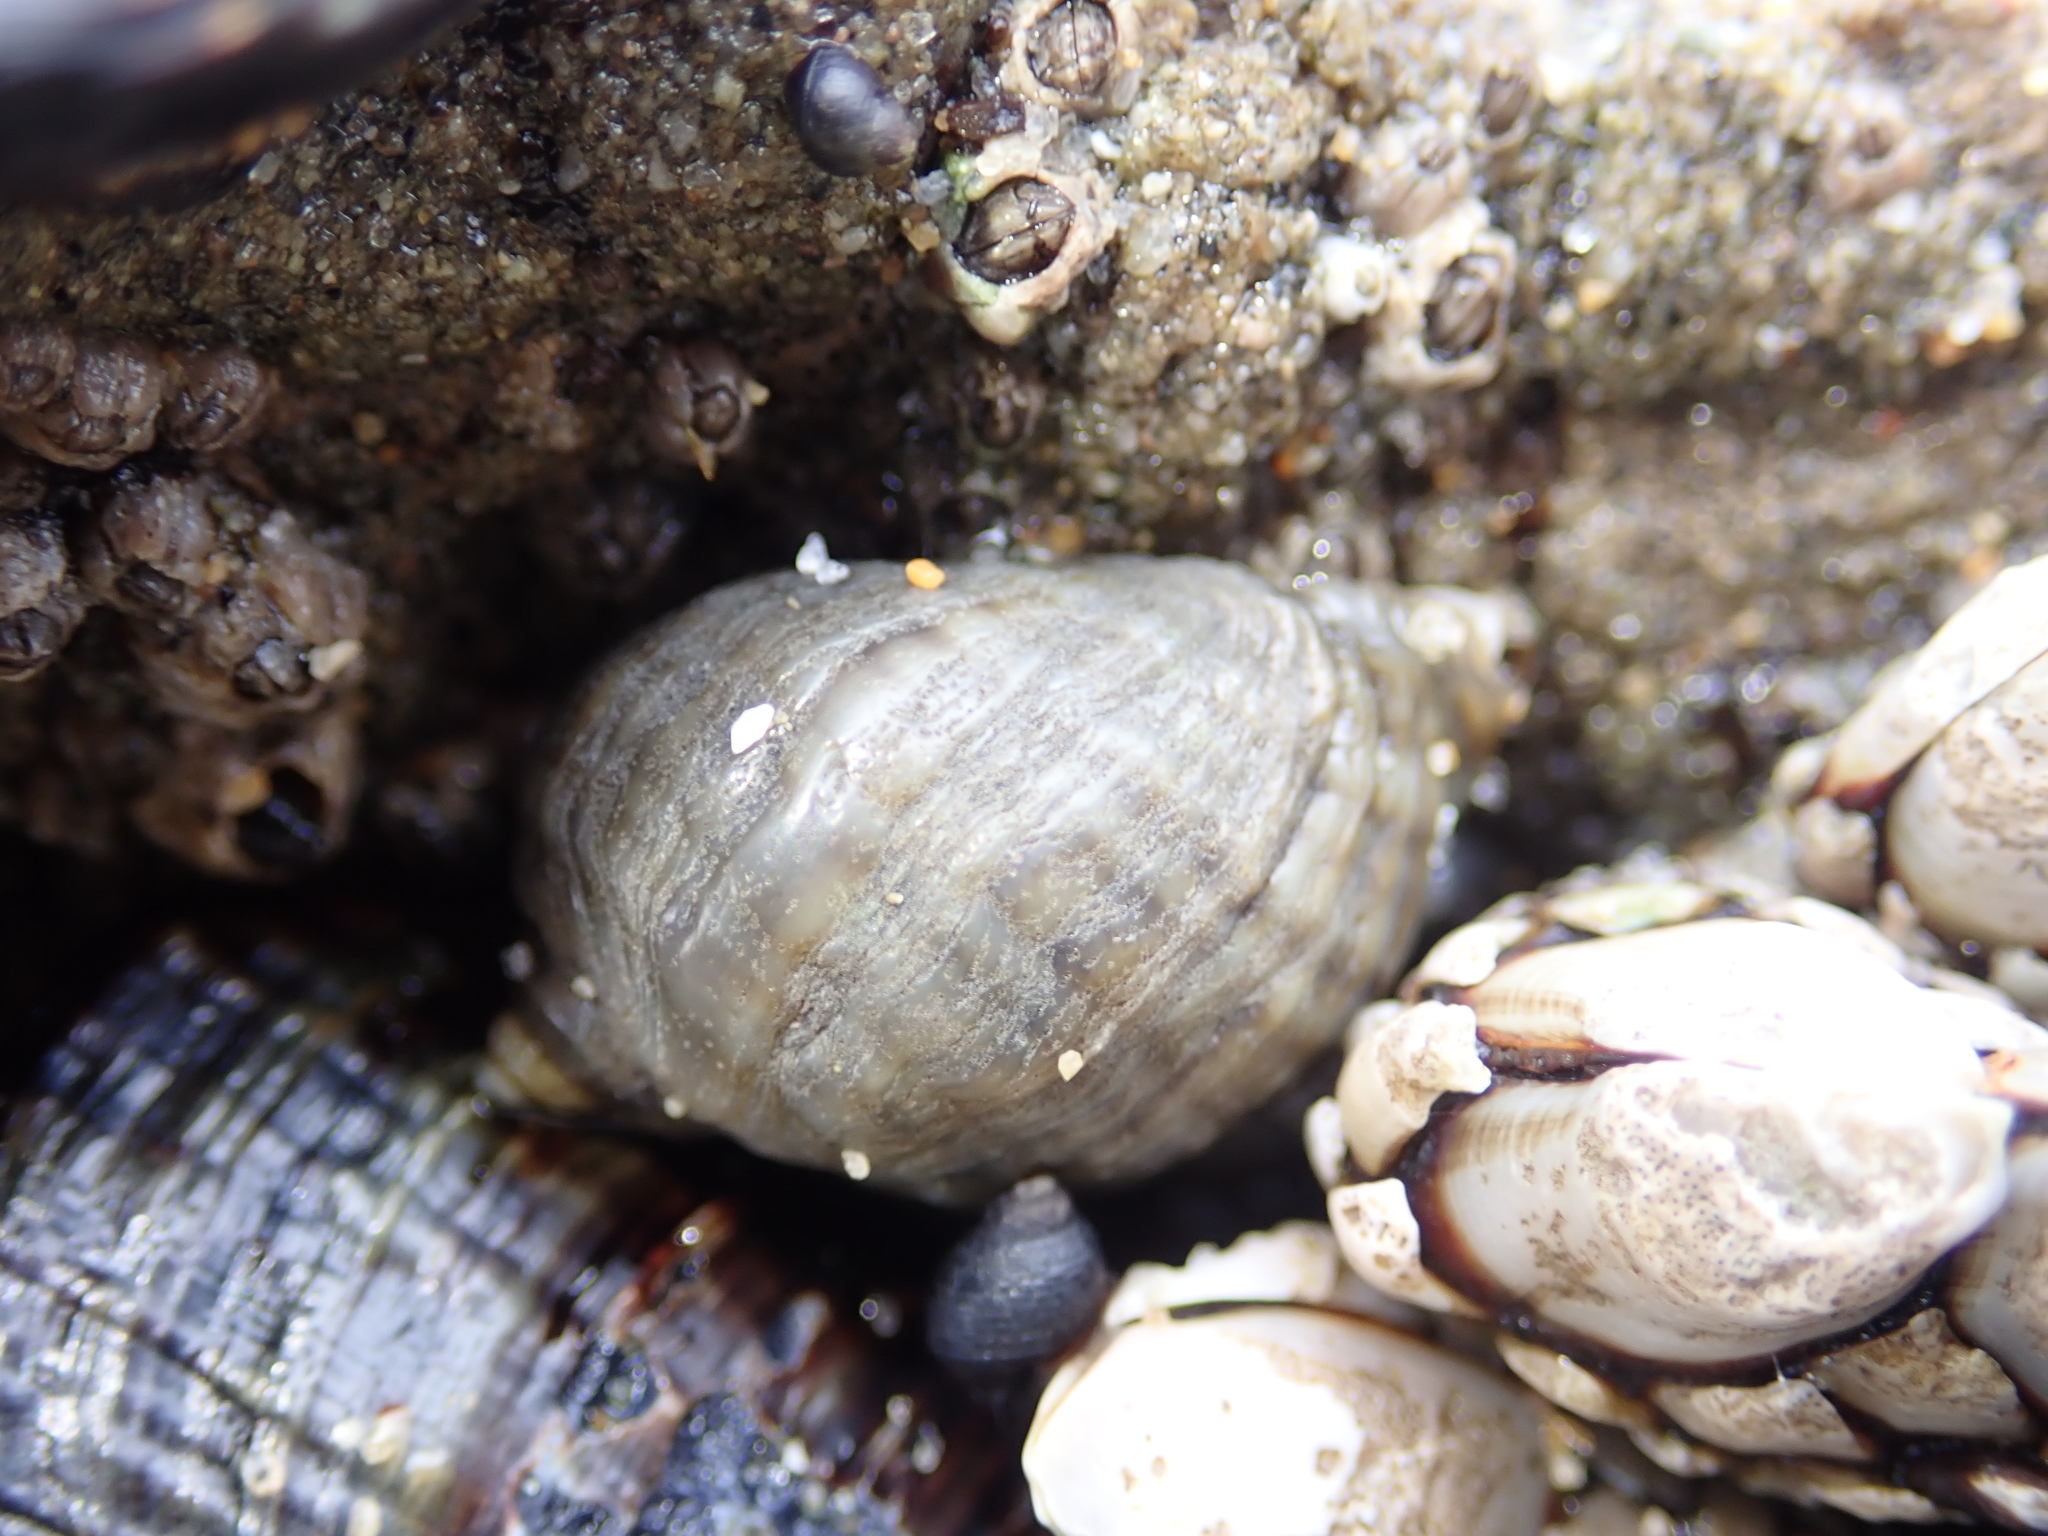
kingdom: Animalia
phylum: Mollusca
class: Gastropoda
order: Neogastropoda
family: Muricidae
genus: Nucella
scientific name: Nucella ostrina
